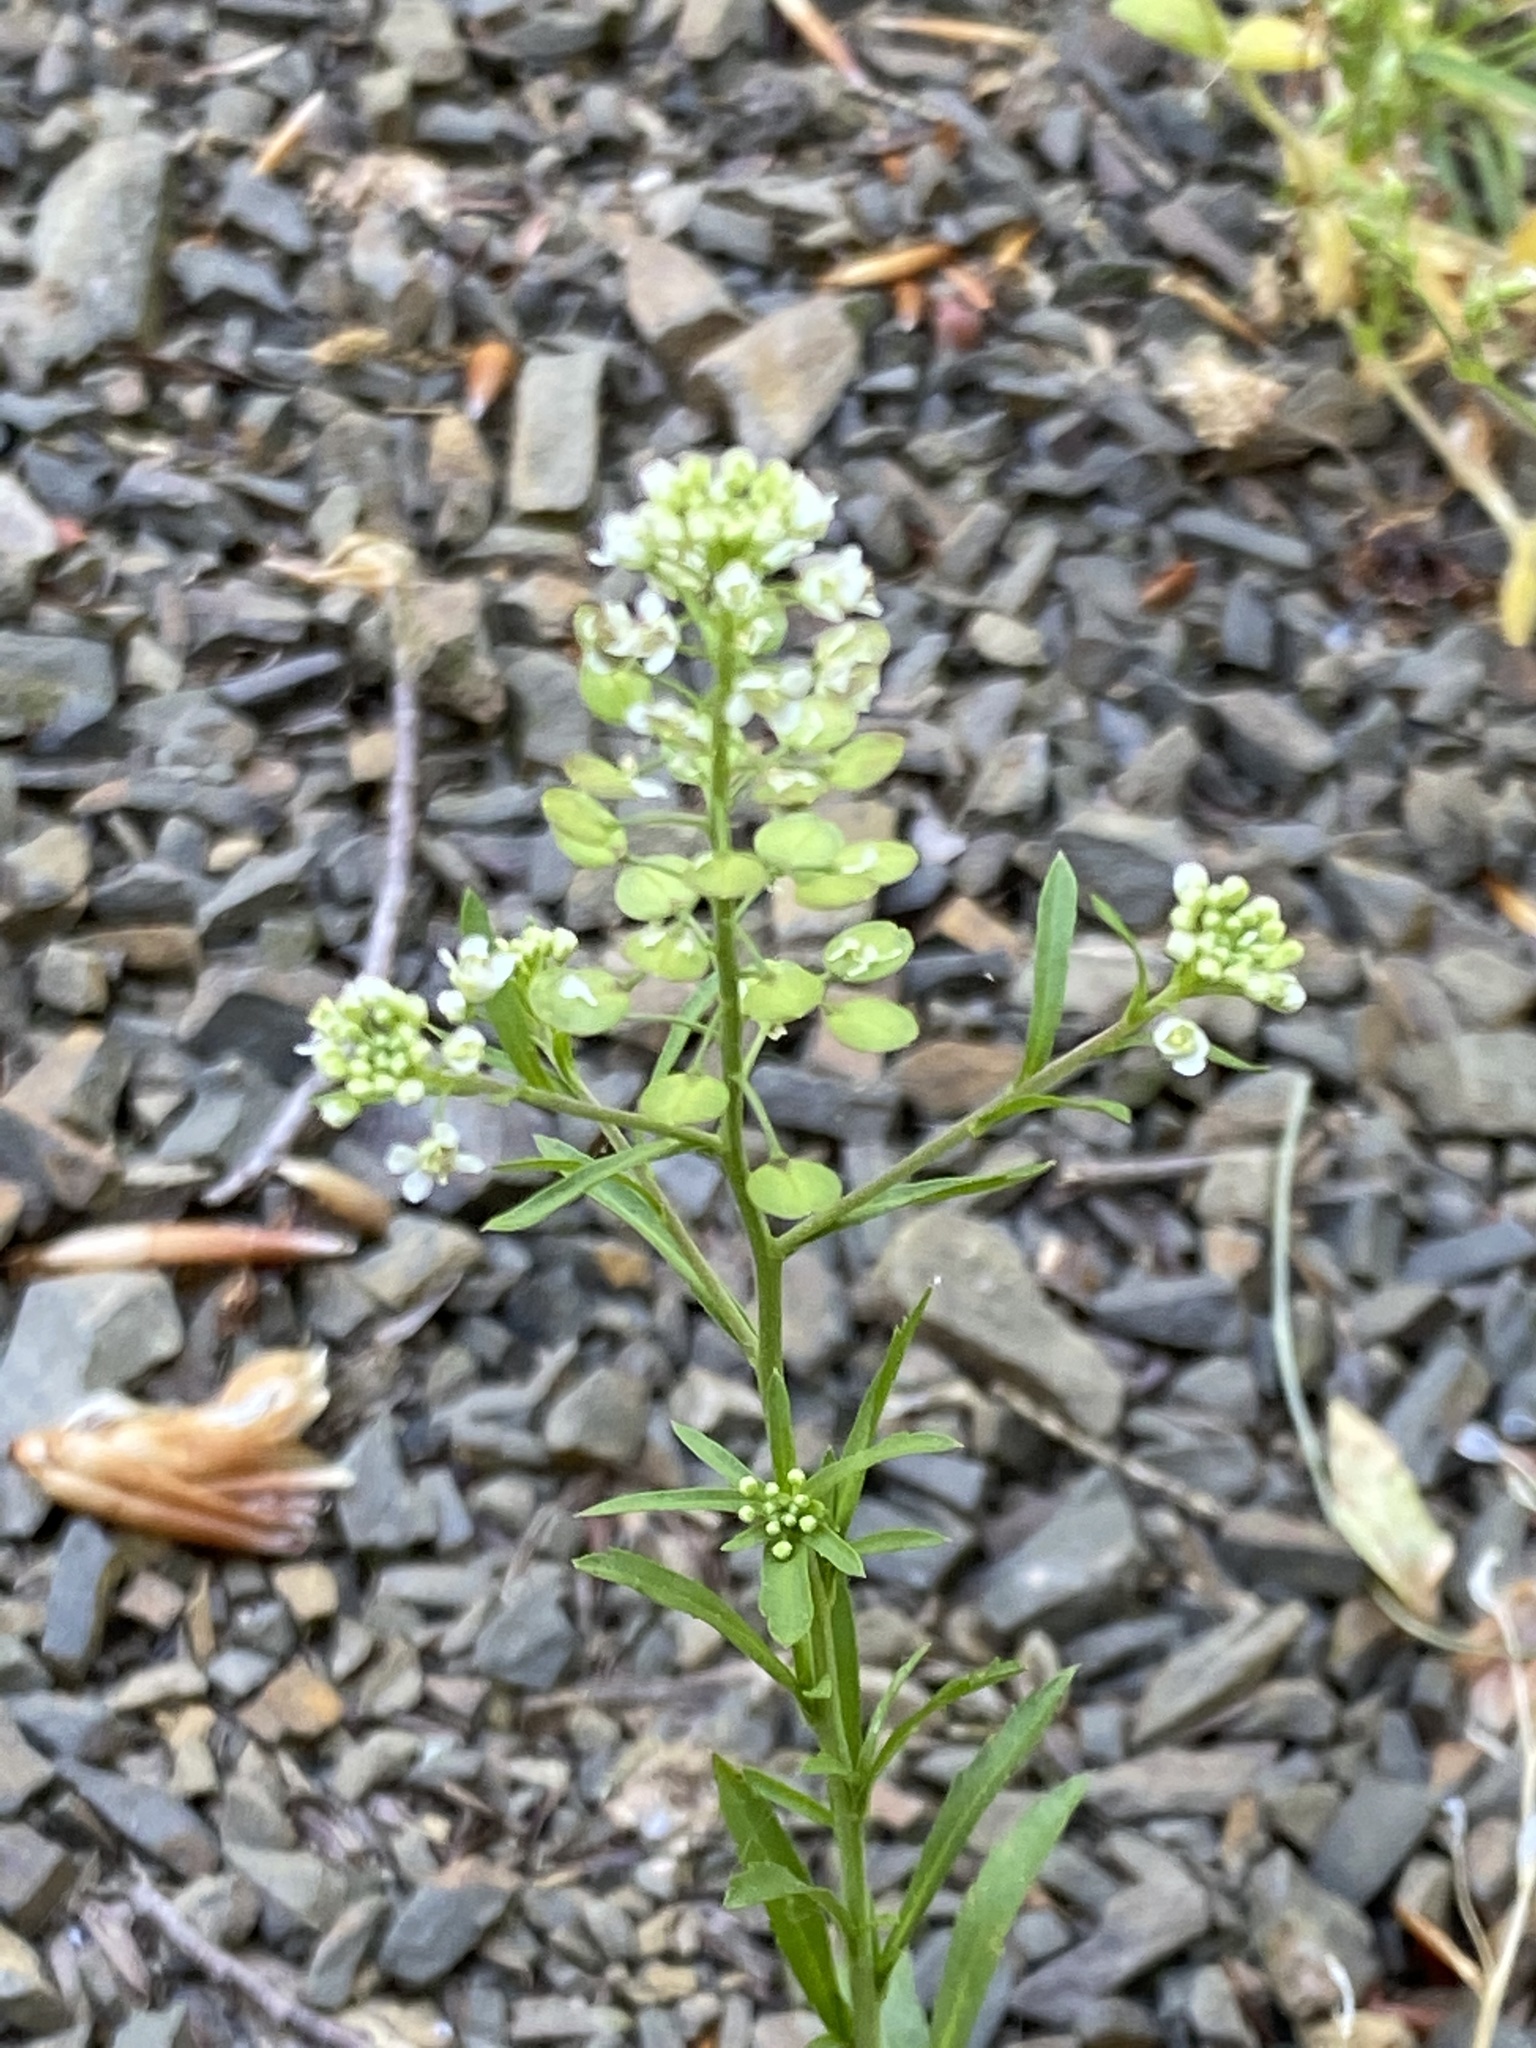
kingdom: Plantae
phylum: Tracheophyta
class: Magnoliopsida
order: Brassicales
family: Brassicaceae
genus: Lepidium
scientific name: Lepidium virginicum
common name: Least pepperwort
